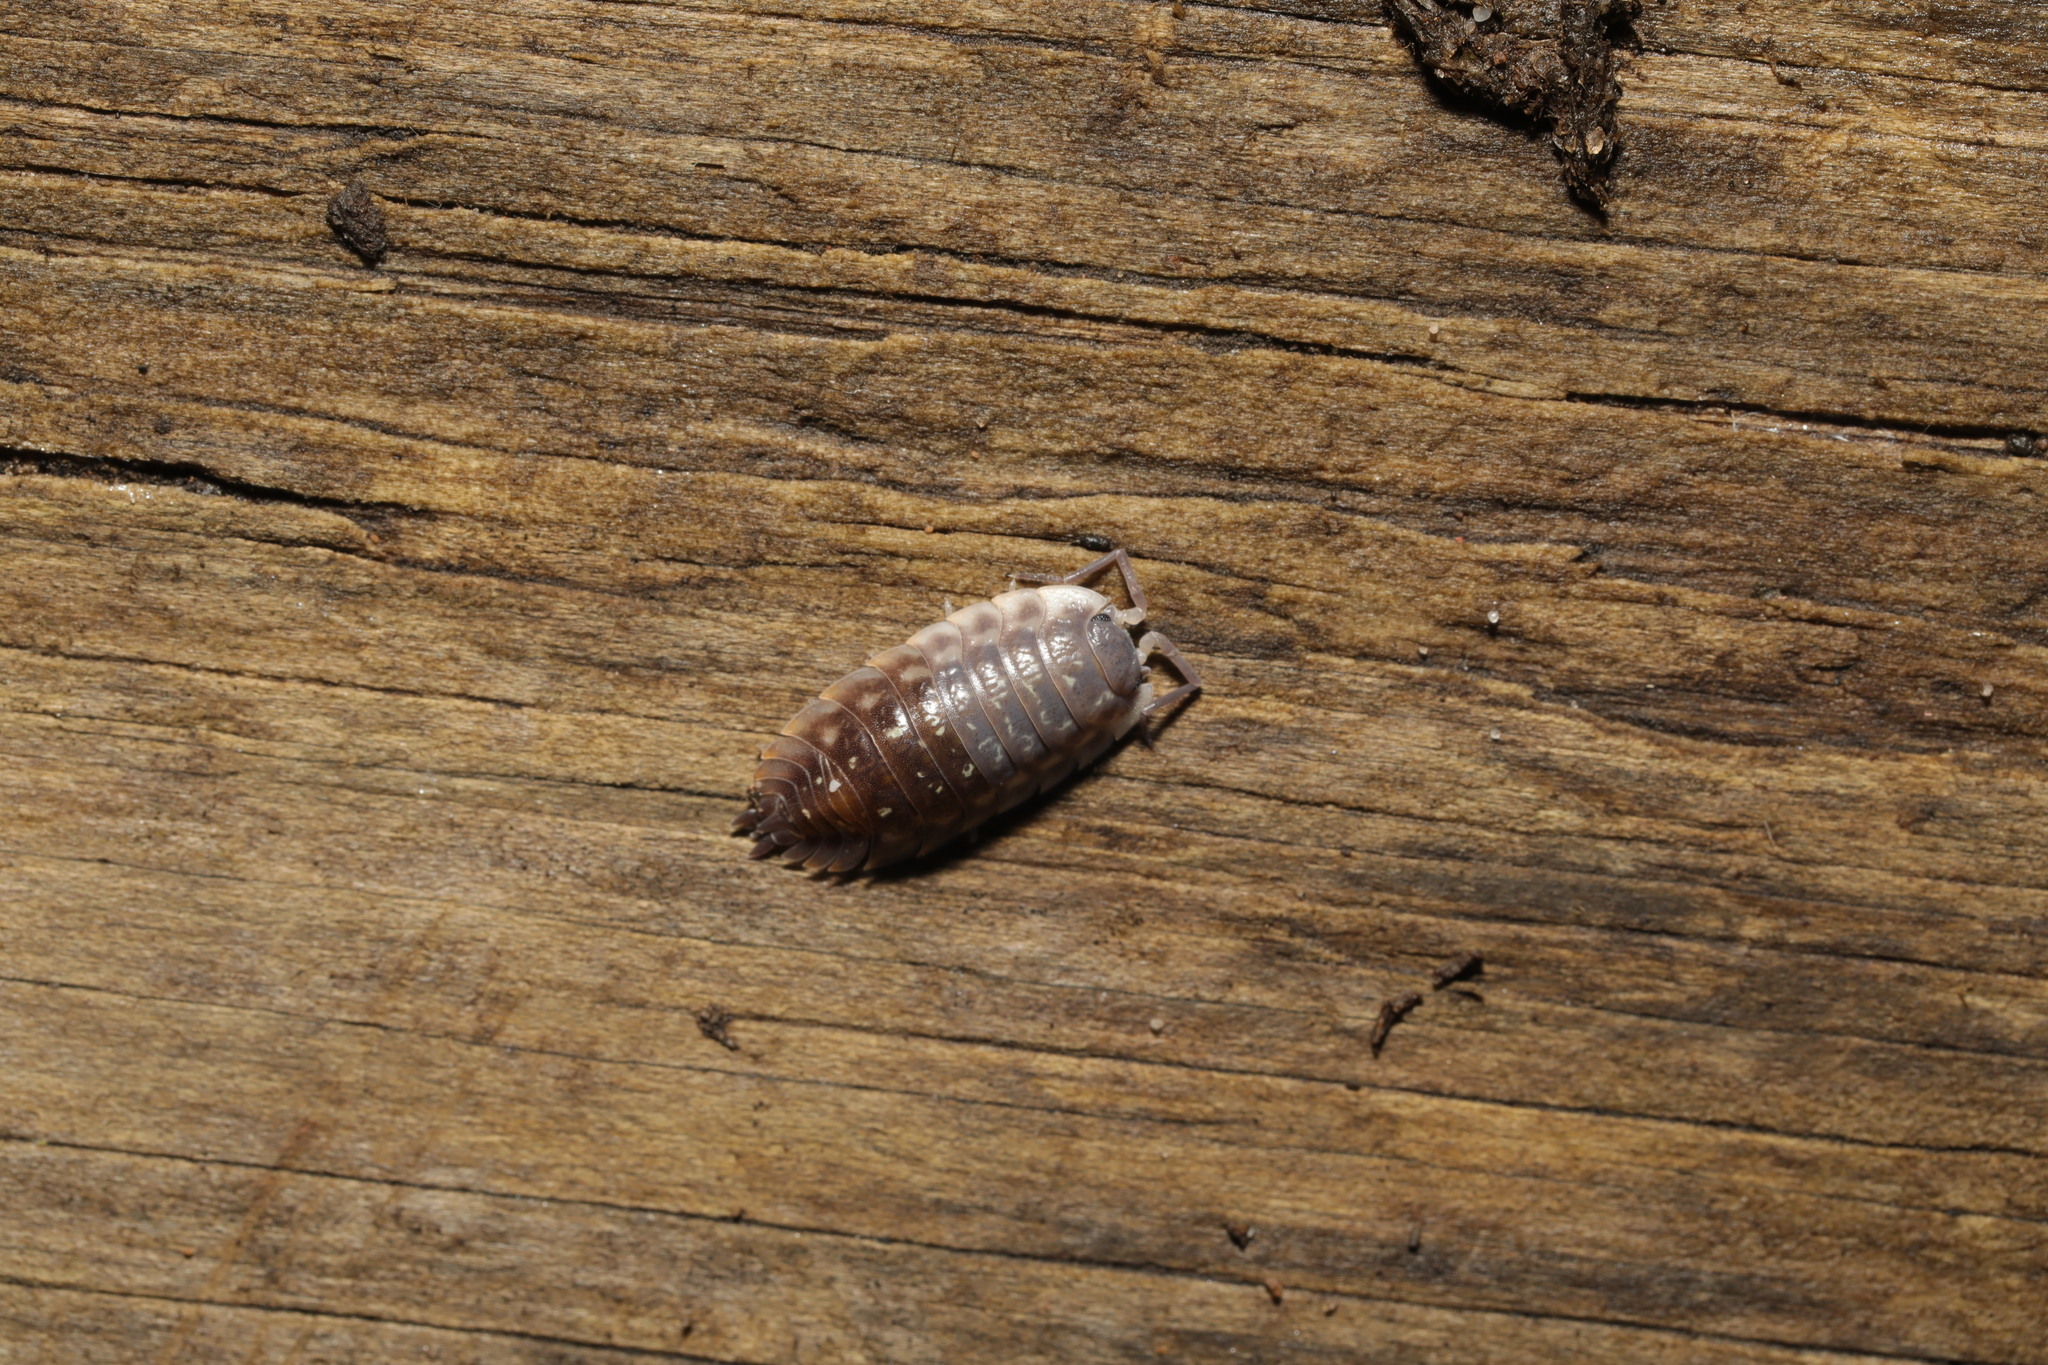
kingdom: Animalia
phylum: Arthropoda
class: Malacostraca
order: Isopoda
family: Oniscidae
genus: Oniscus
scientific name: Oniscus asellus
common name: Common shiny woodlouse
